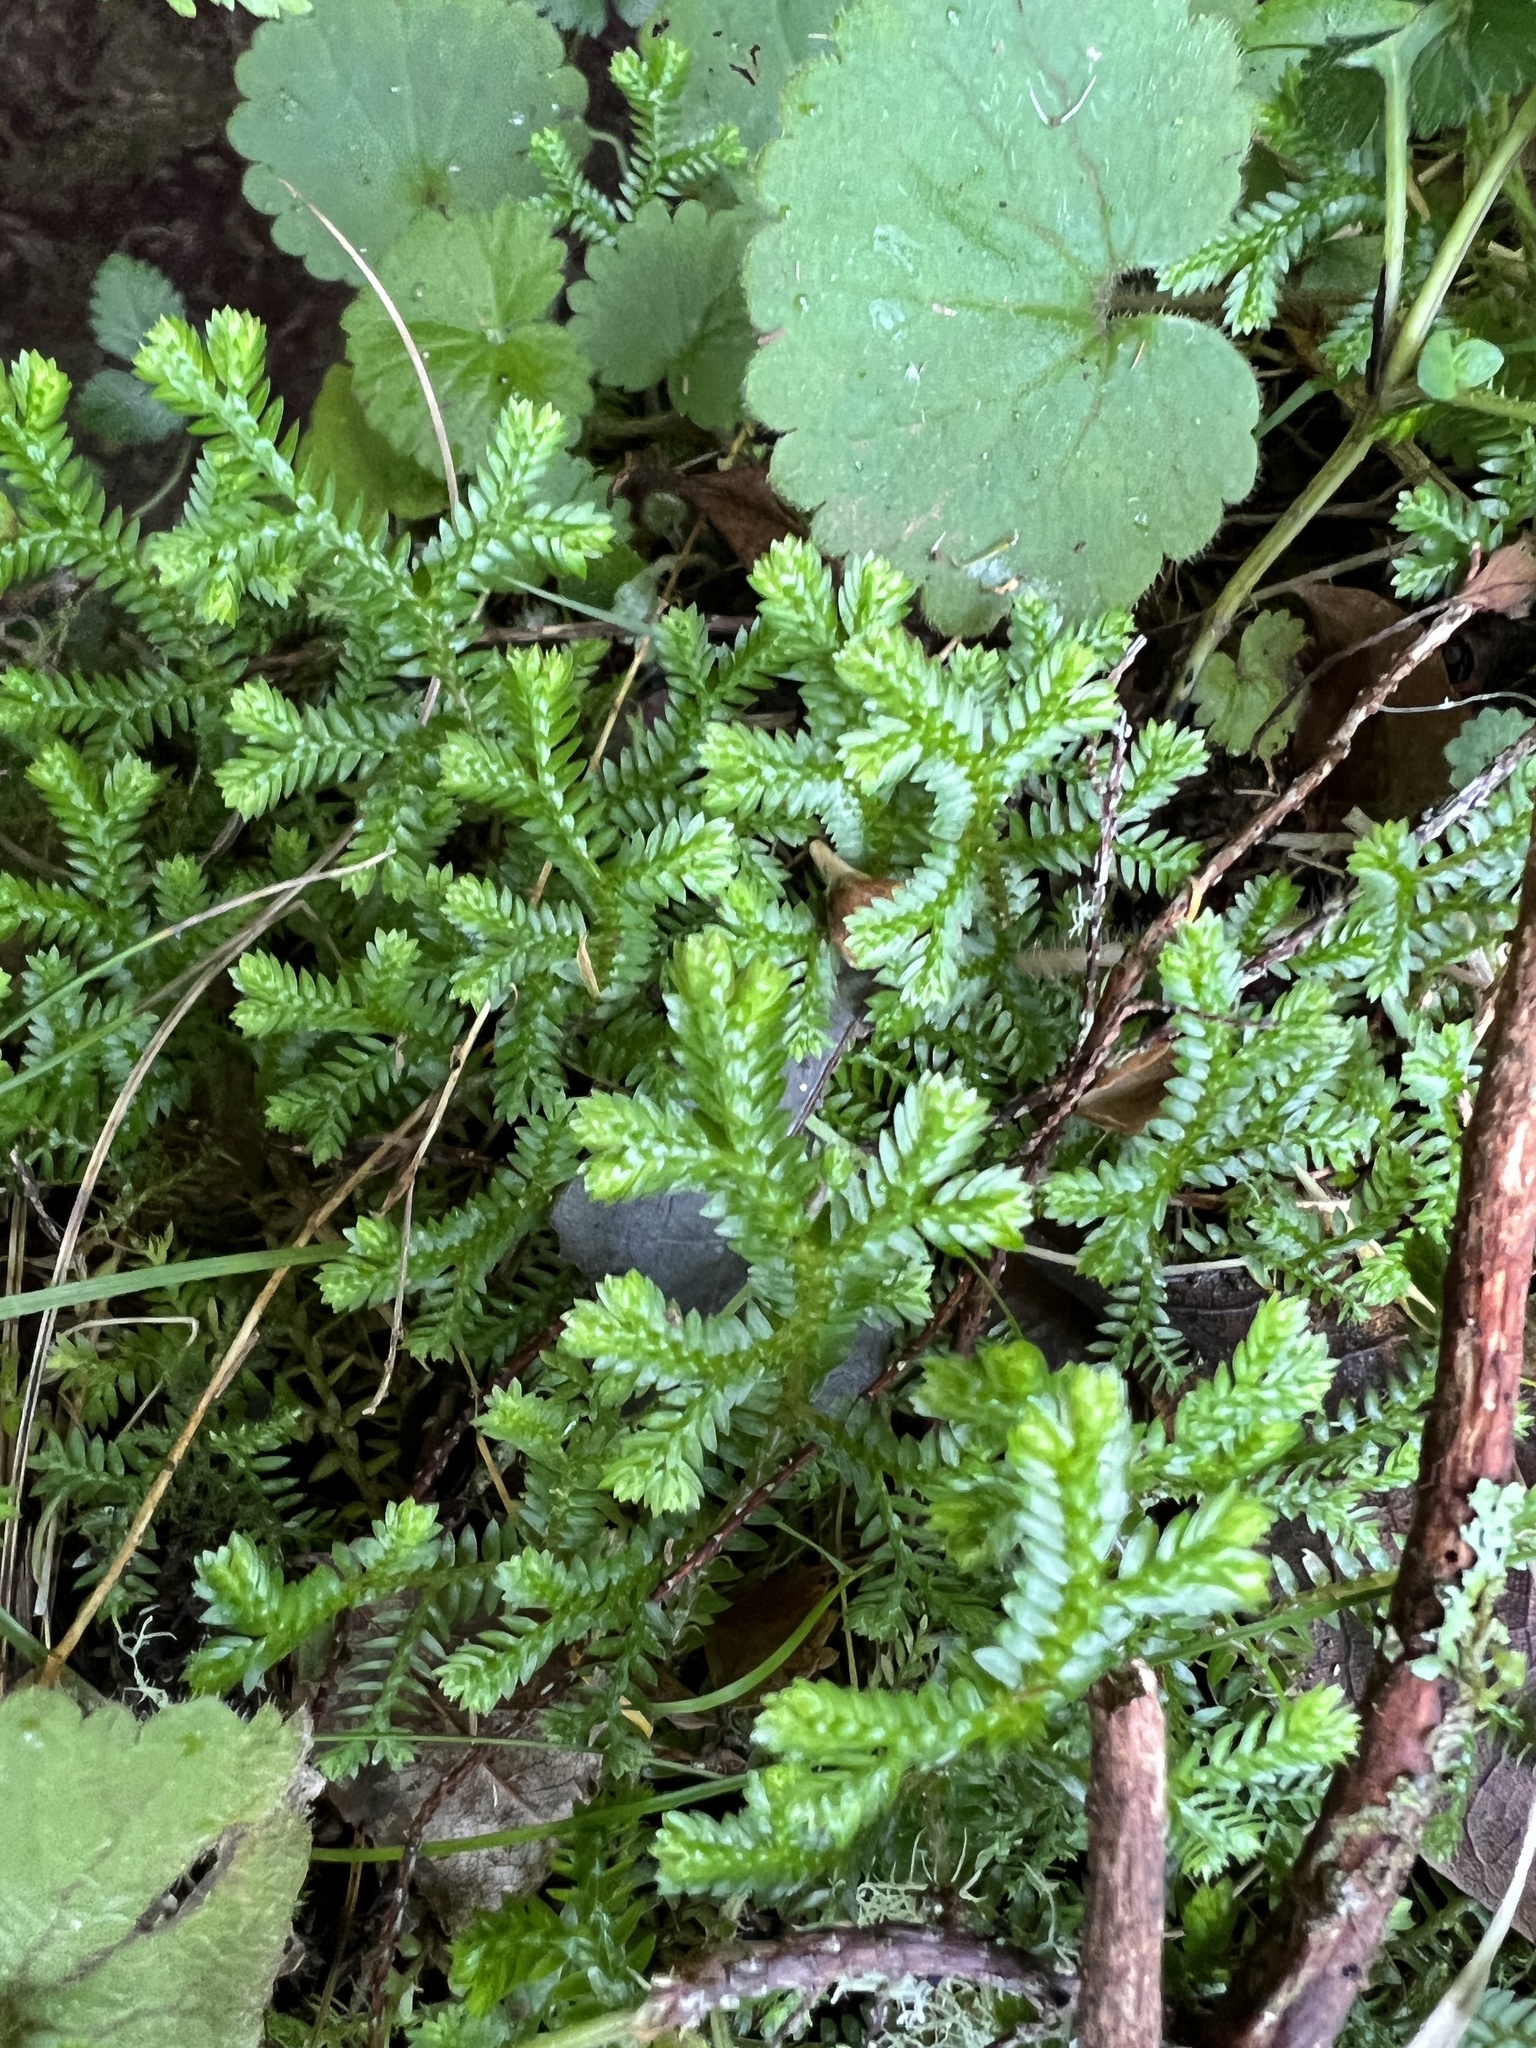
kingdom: Plantae
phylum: Tracheophyta
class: Lycopodiopsida
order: Selaginellales
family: Selaginellaceae
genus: Selaginella
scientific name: Selaginella kraussiana
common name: Krauss' spikemoss
